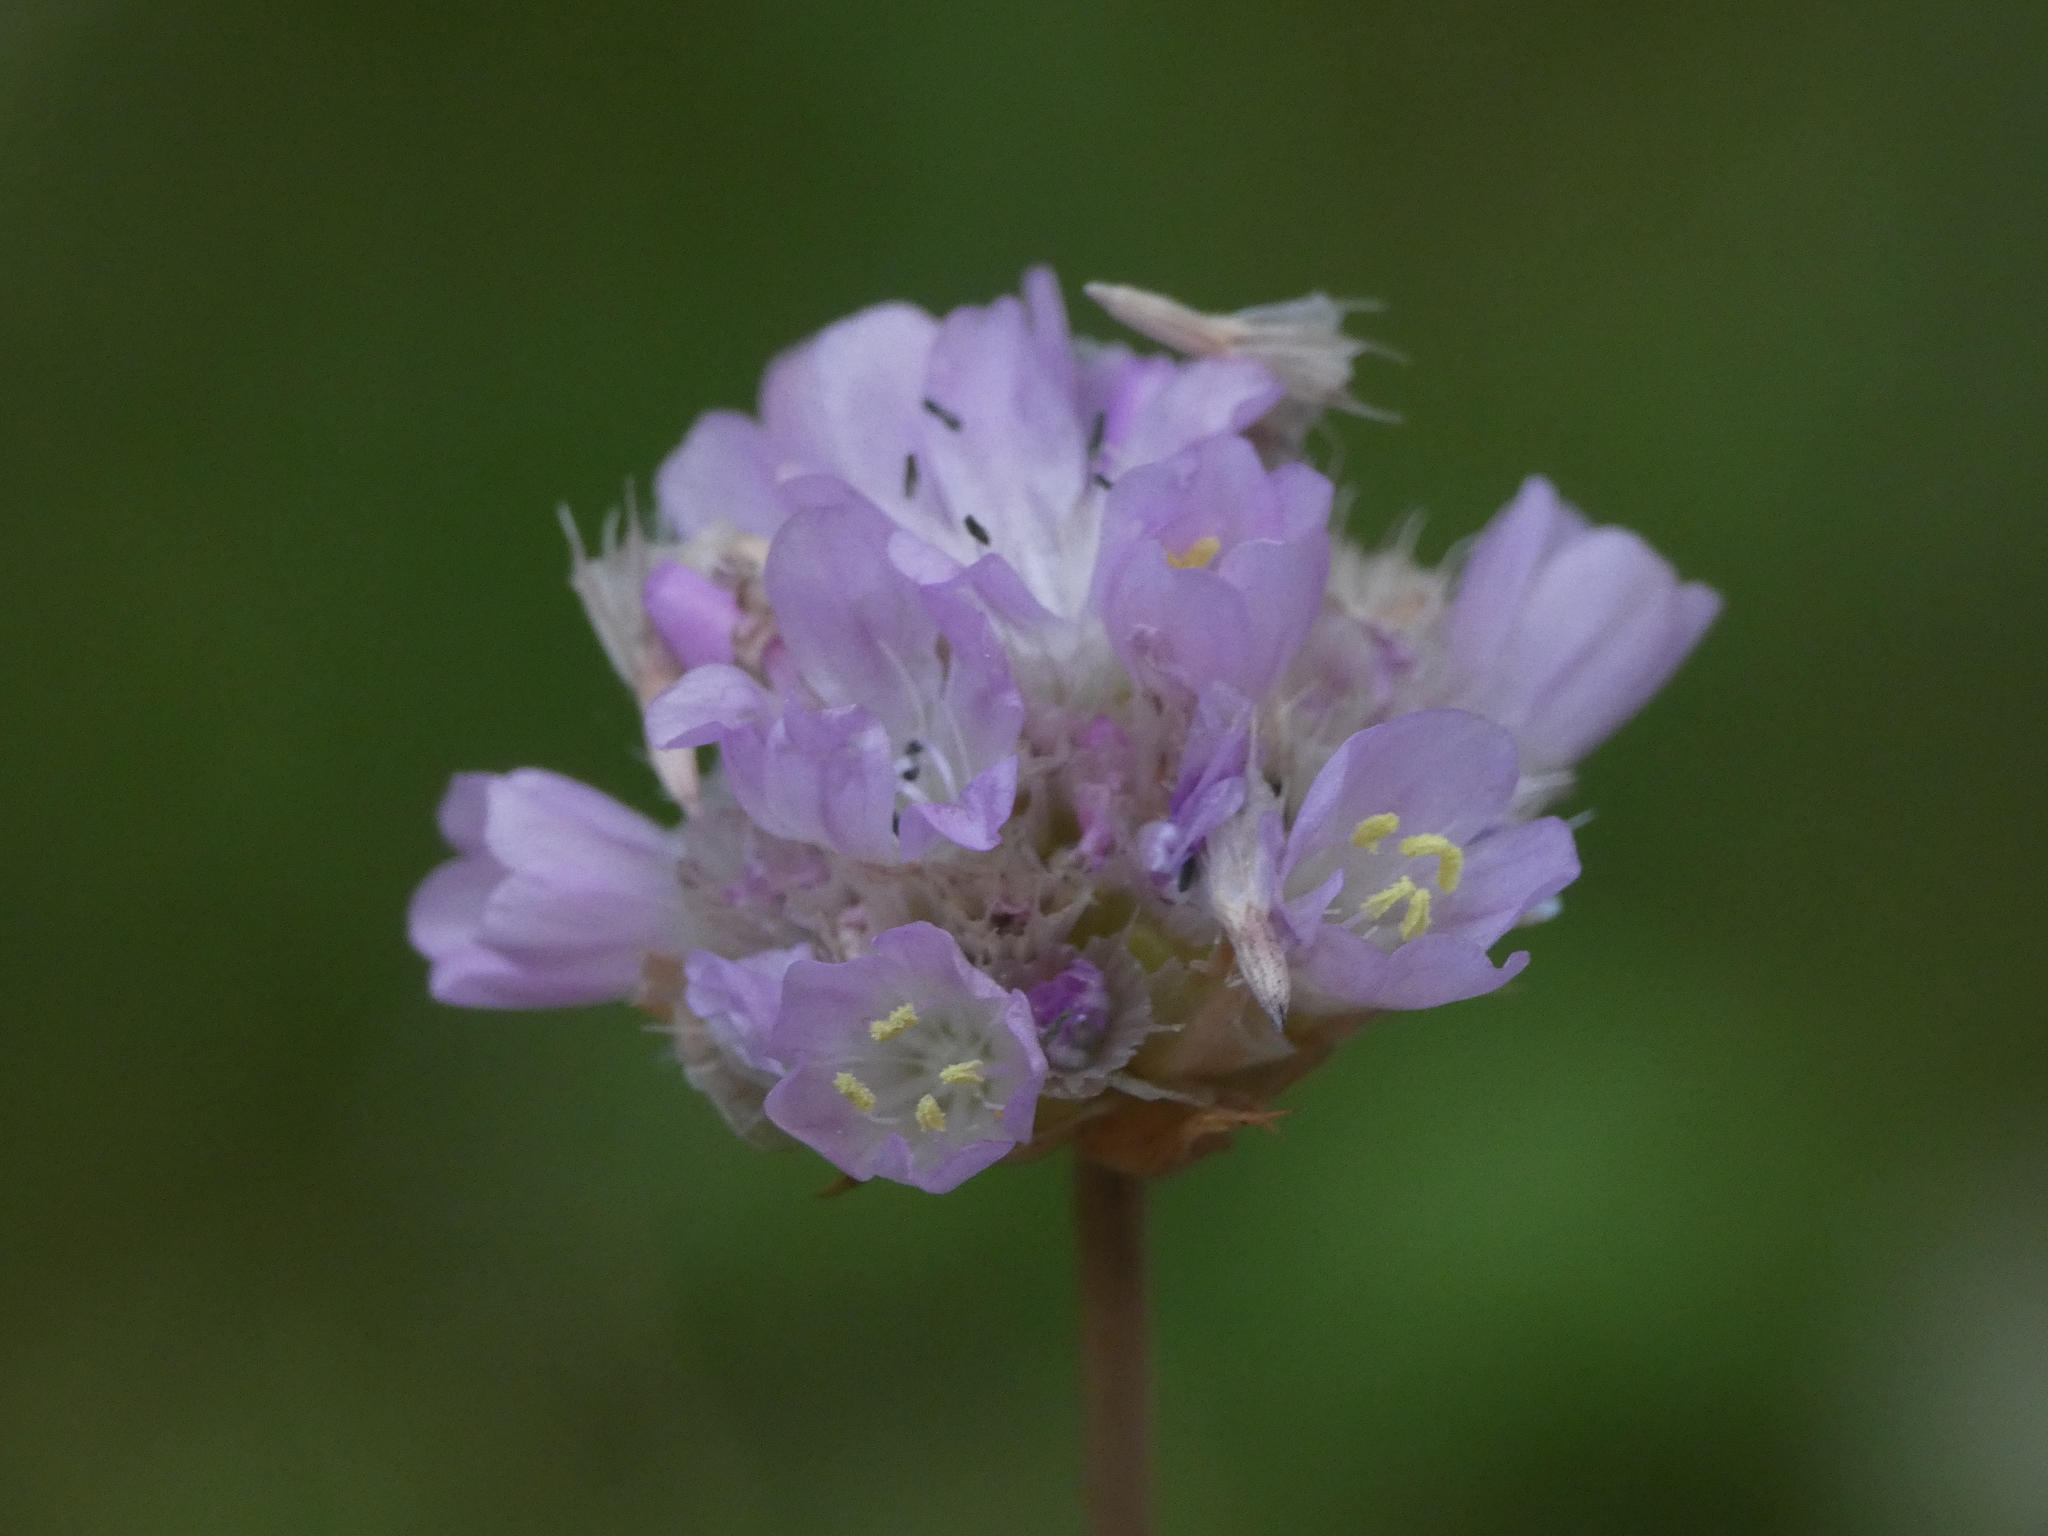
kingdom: Plantae
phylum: Tracheophyta
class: Magnoliopsida
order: Caryophyllales
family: Plumbaginaceae
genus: Armeria
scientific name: Armeria arenaria
